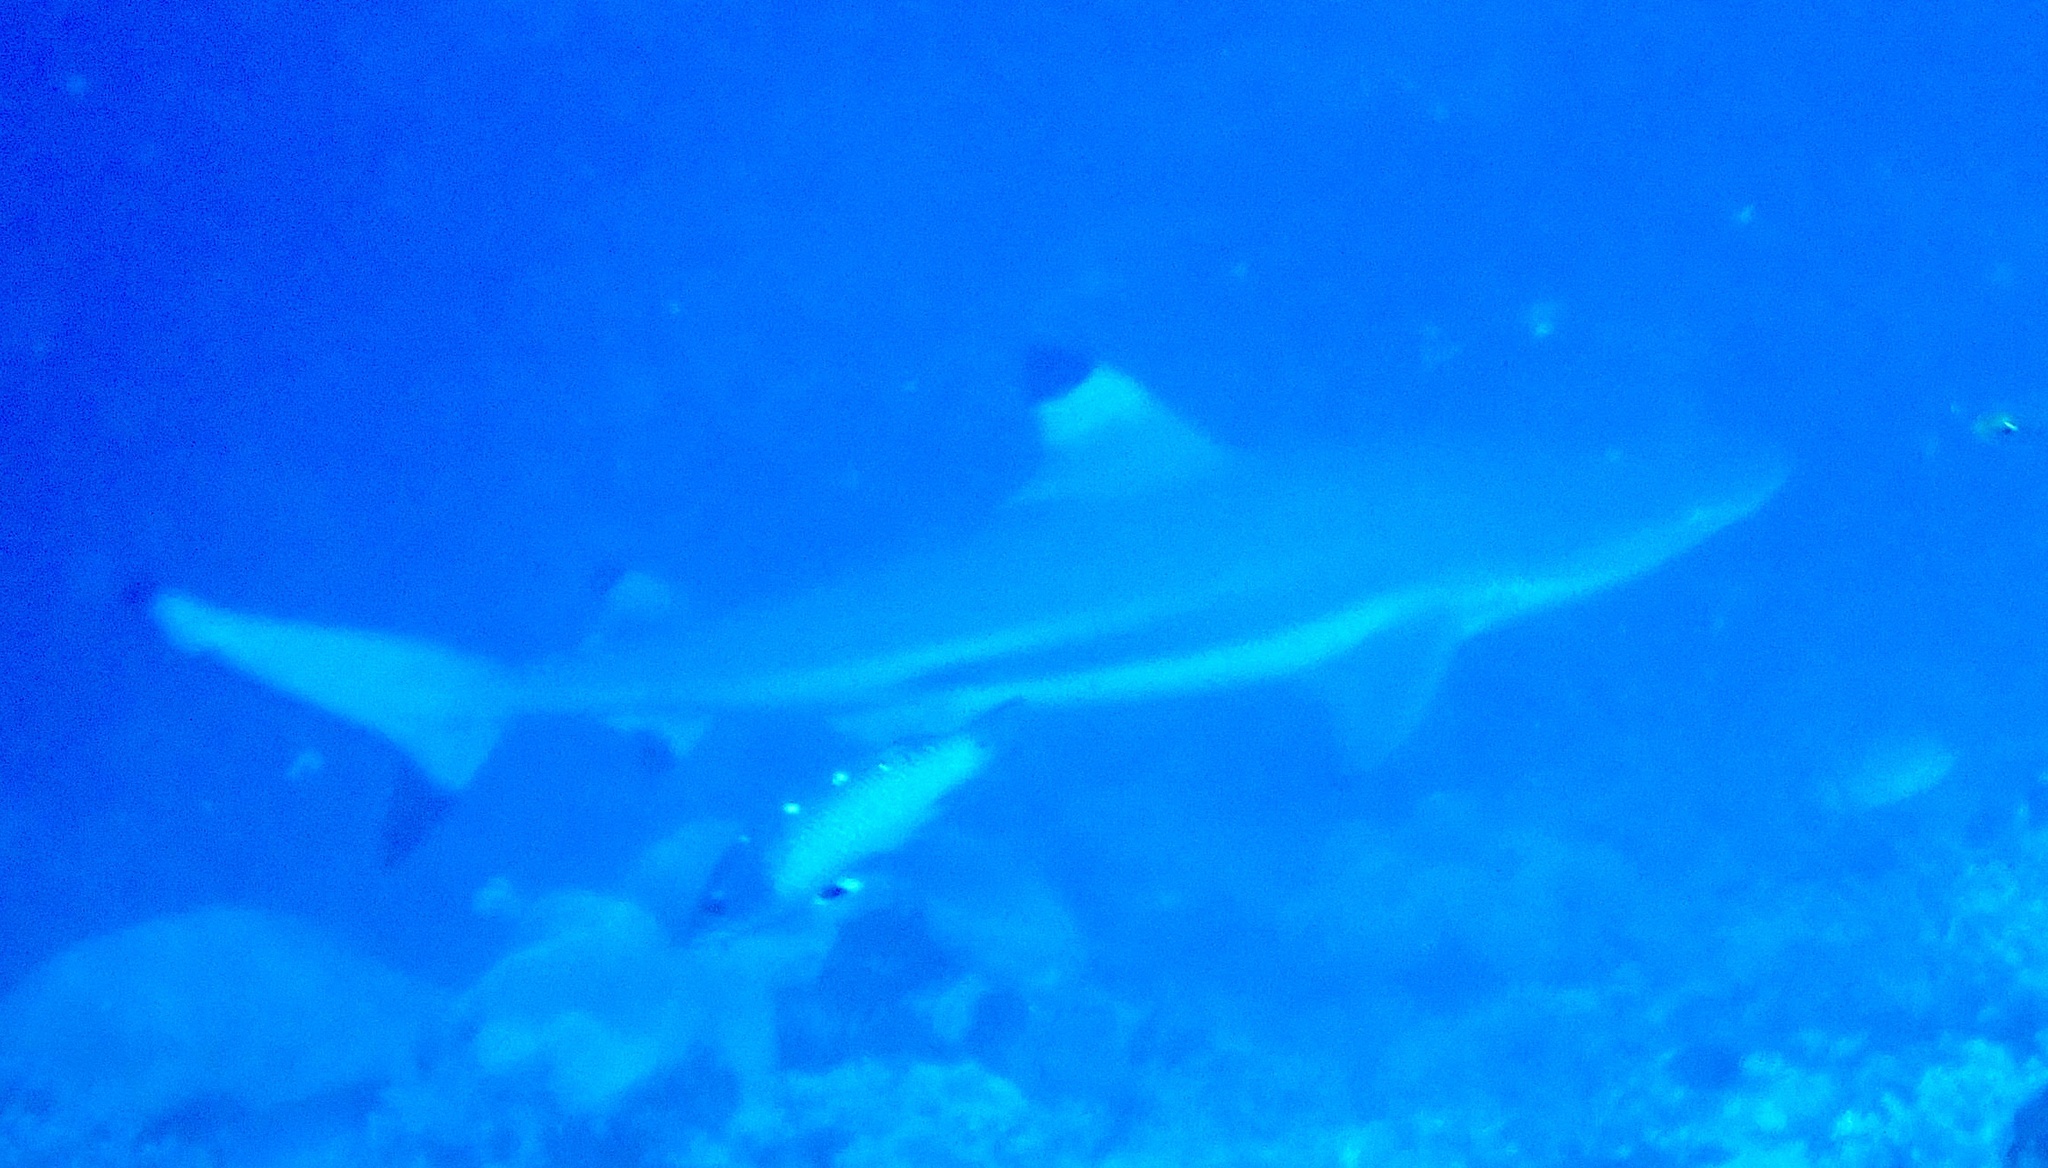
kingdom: Animalia
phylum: Chordata
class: Elasmobranchii
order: Carcharhiniformes
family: Carcharhinidae
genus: Carcharhinus
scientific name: Carcharhinus melanopterus
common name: Blacktip reef shark
